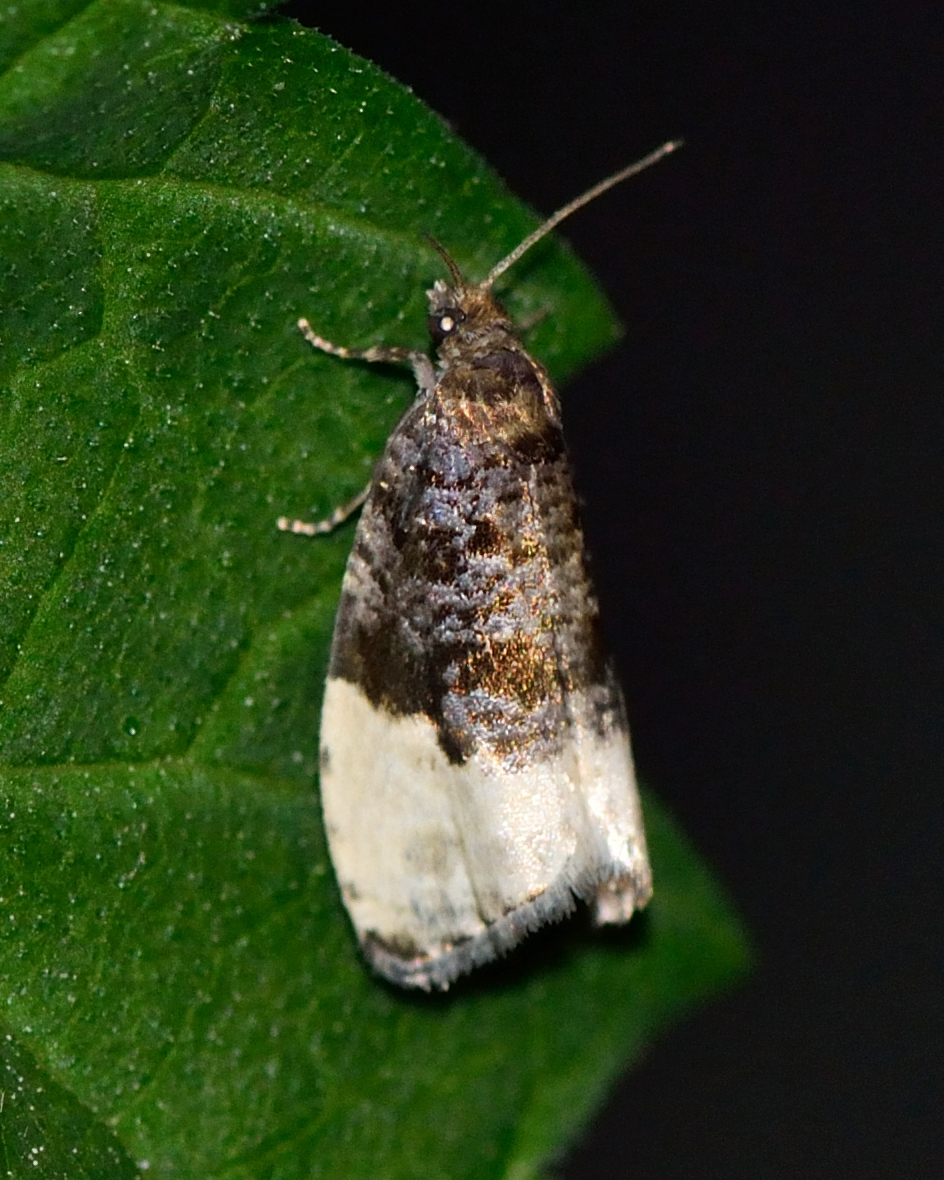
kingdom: Animalia
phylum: Arthropoda
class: Insecta
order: Lepidoptera
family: Tortricidae
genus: Hedya
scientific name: Hedya pruniana
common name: Plum tortrix
